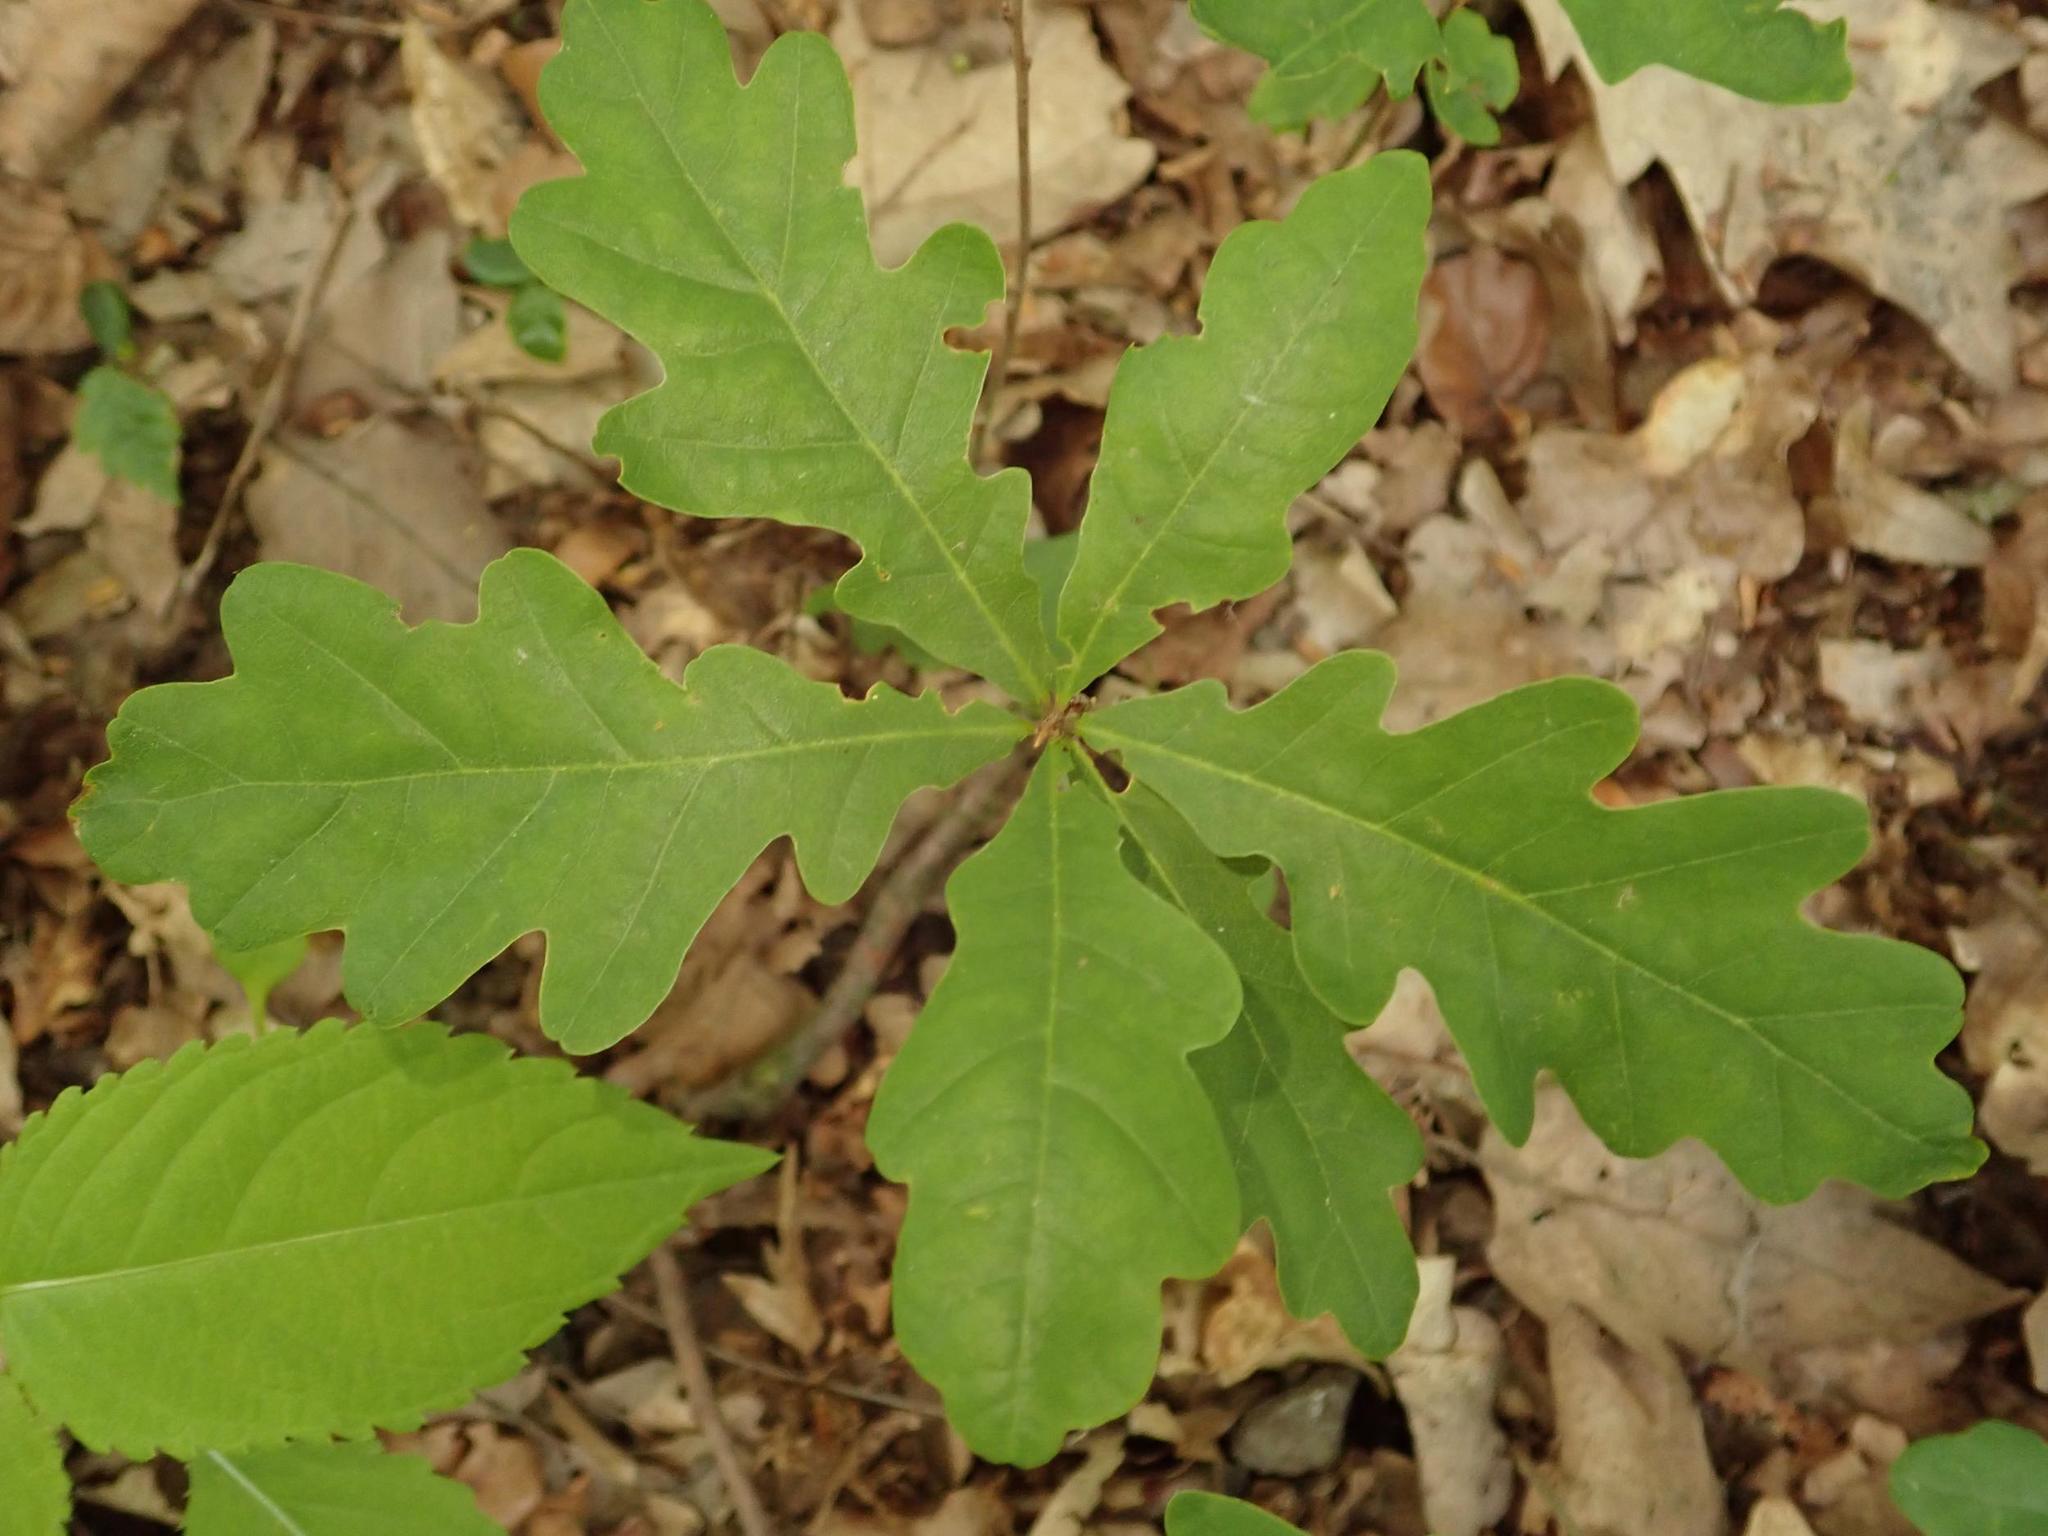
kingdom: Plantae
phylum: Tracheophyta
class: Magnoliopsida
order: Fagales
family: Fagaceae
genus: Quercus
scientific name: Quercus robur
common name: Pedunculate oak
